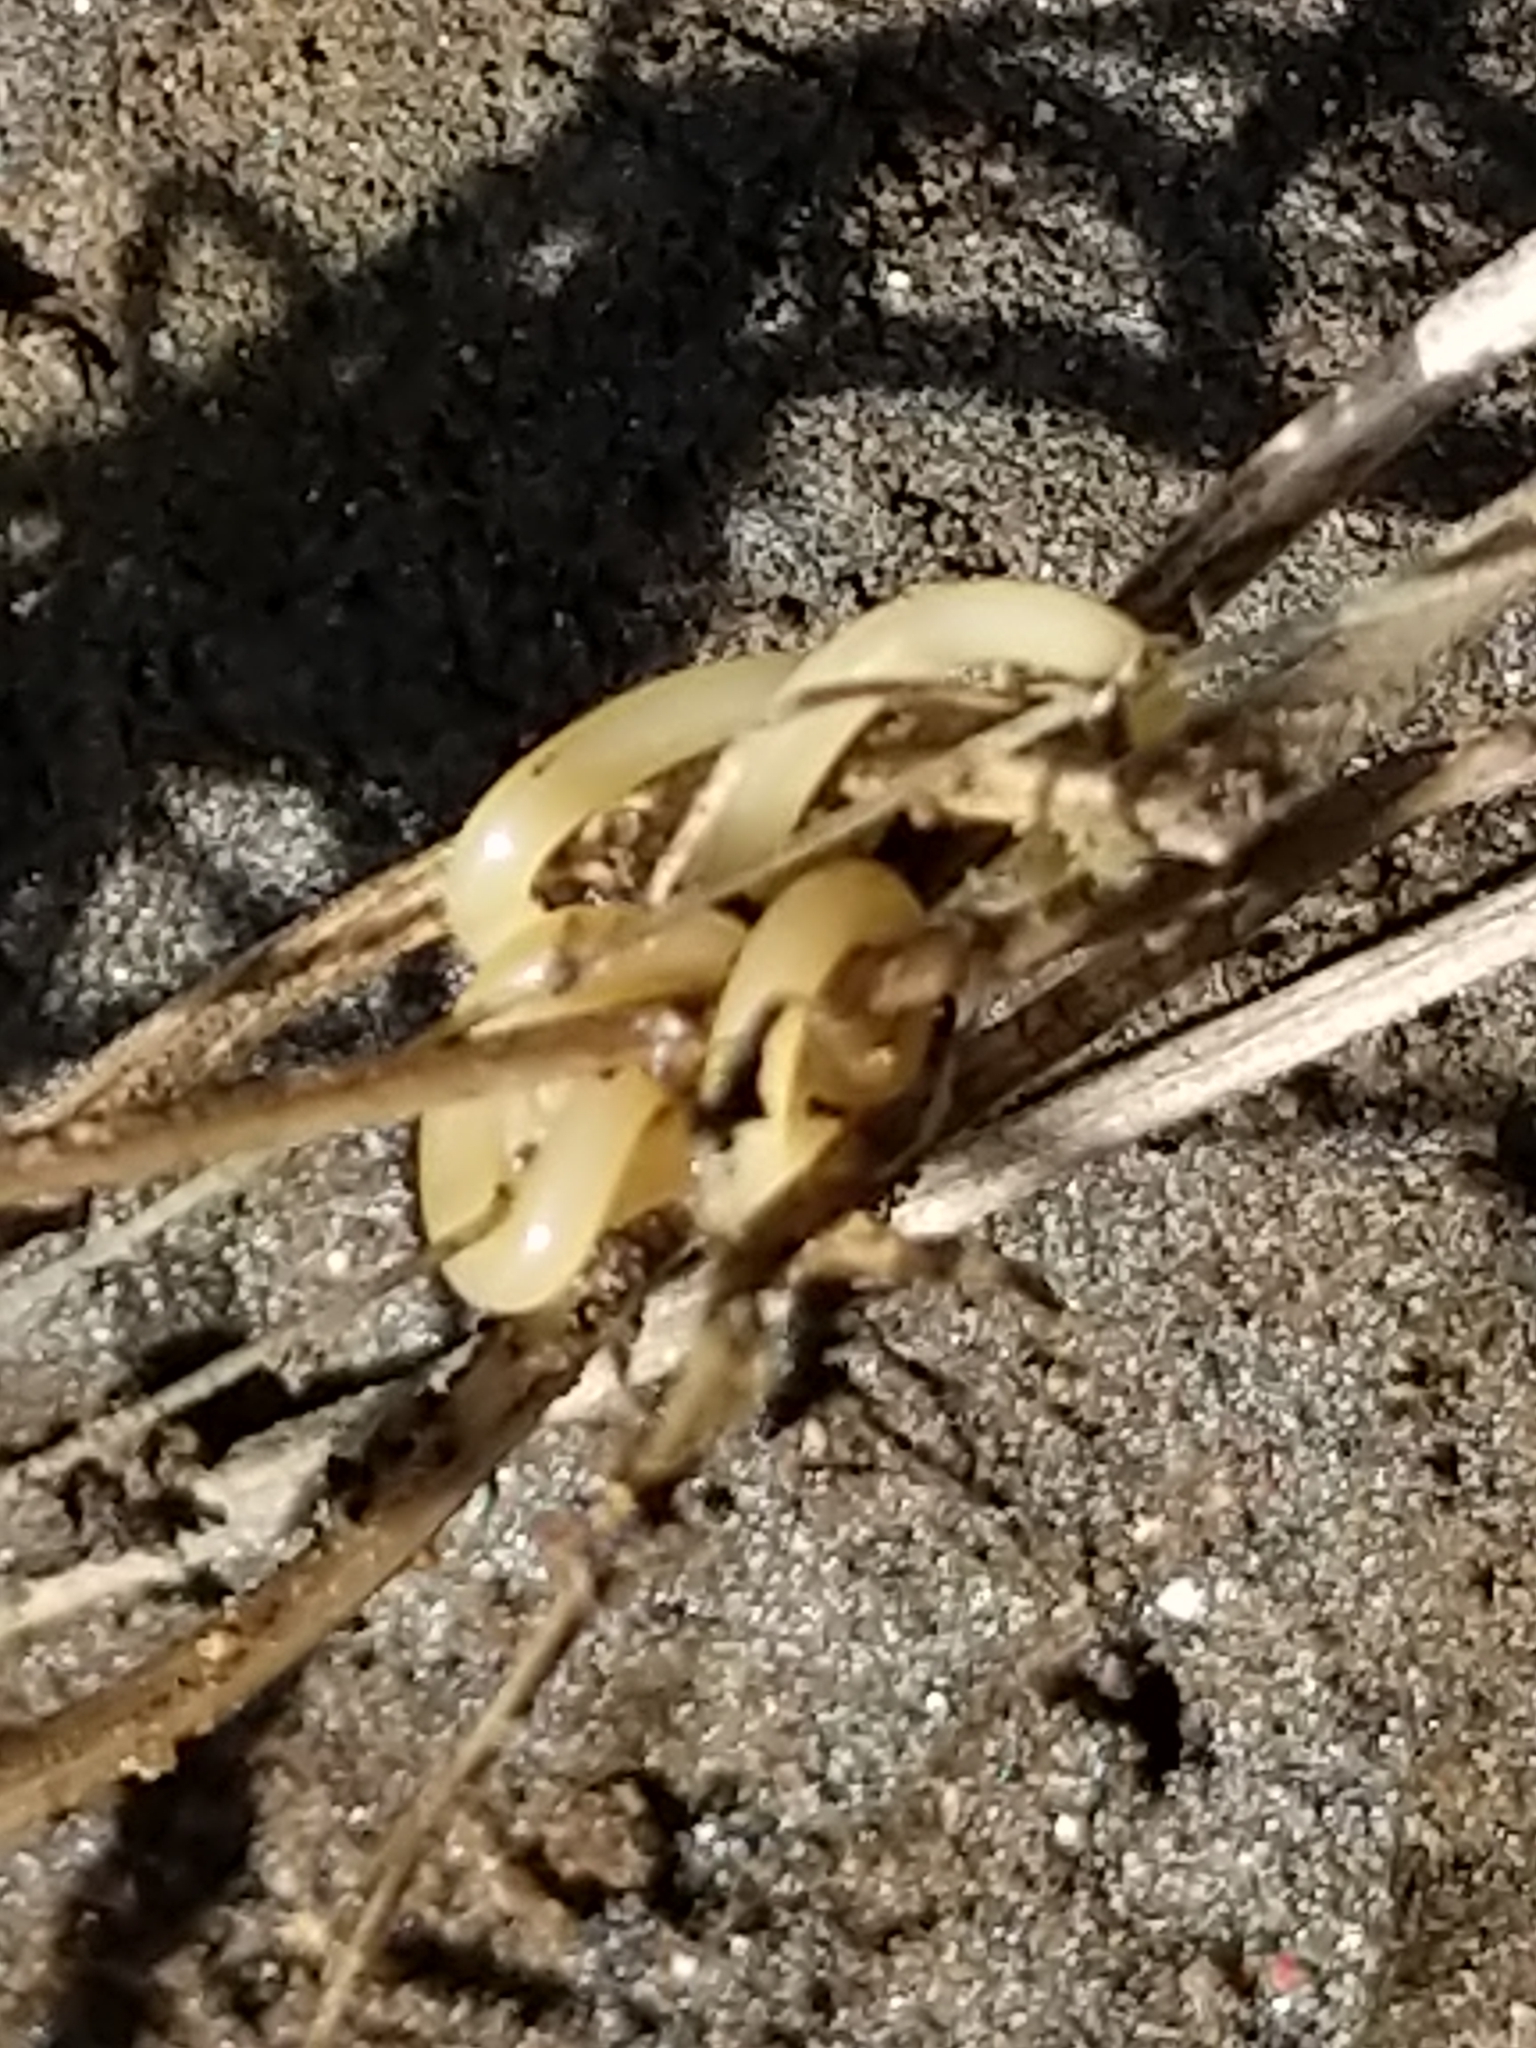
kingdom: Animalia
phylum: Arthropoda
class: Insecta
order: Hymenoptera
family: Vespidae
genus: Vespula
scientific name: Vespula flavopilosa
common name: Downy yellowjacket
